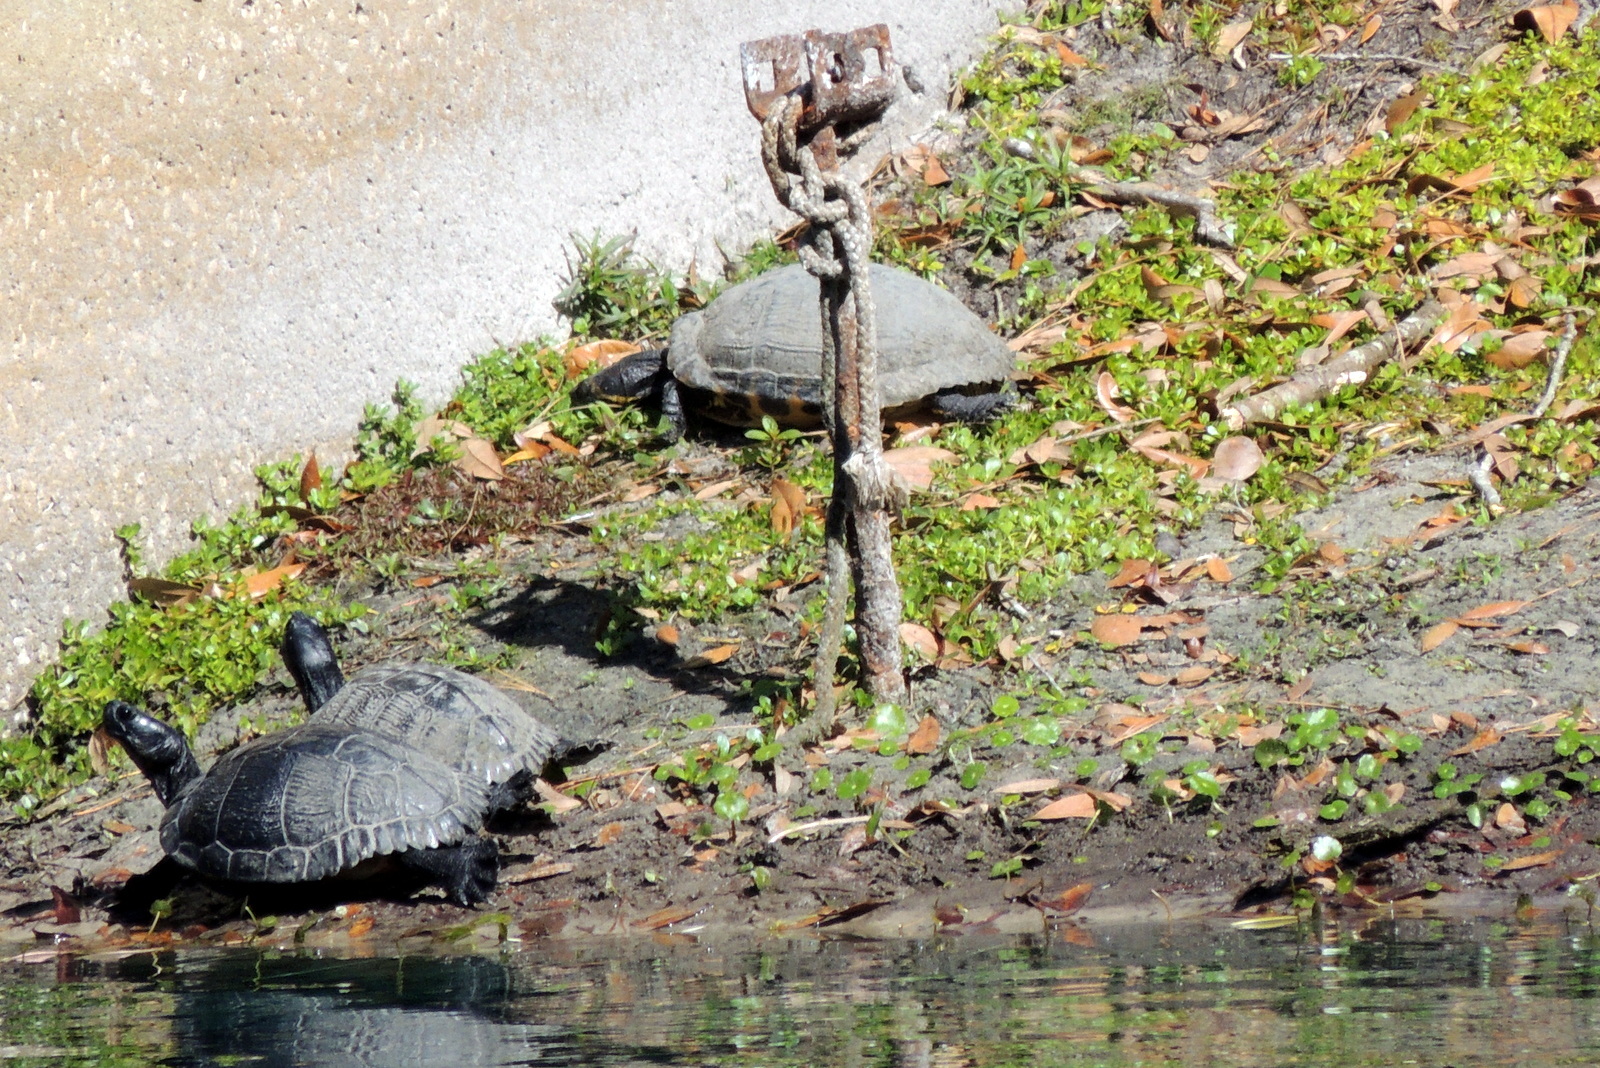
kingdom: Animalia
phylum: Chordata
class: Testudines
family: Emydidae
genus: Trachemys
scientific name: Trachemys scripta
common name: Slider
